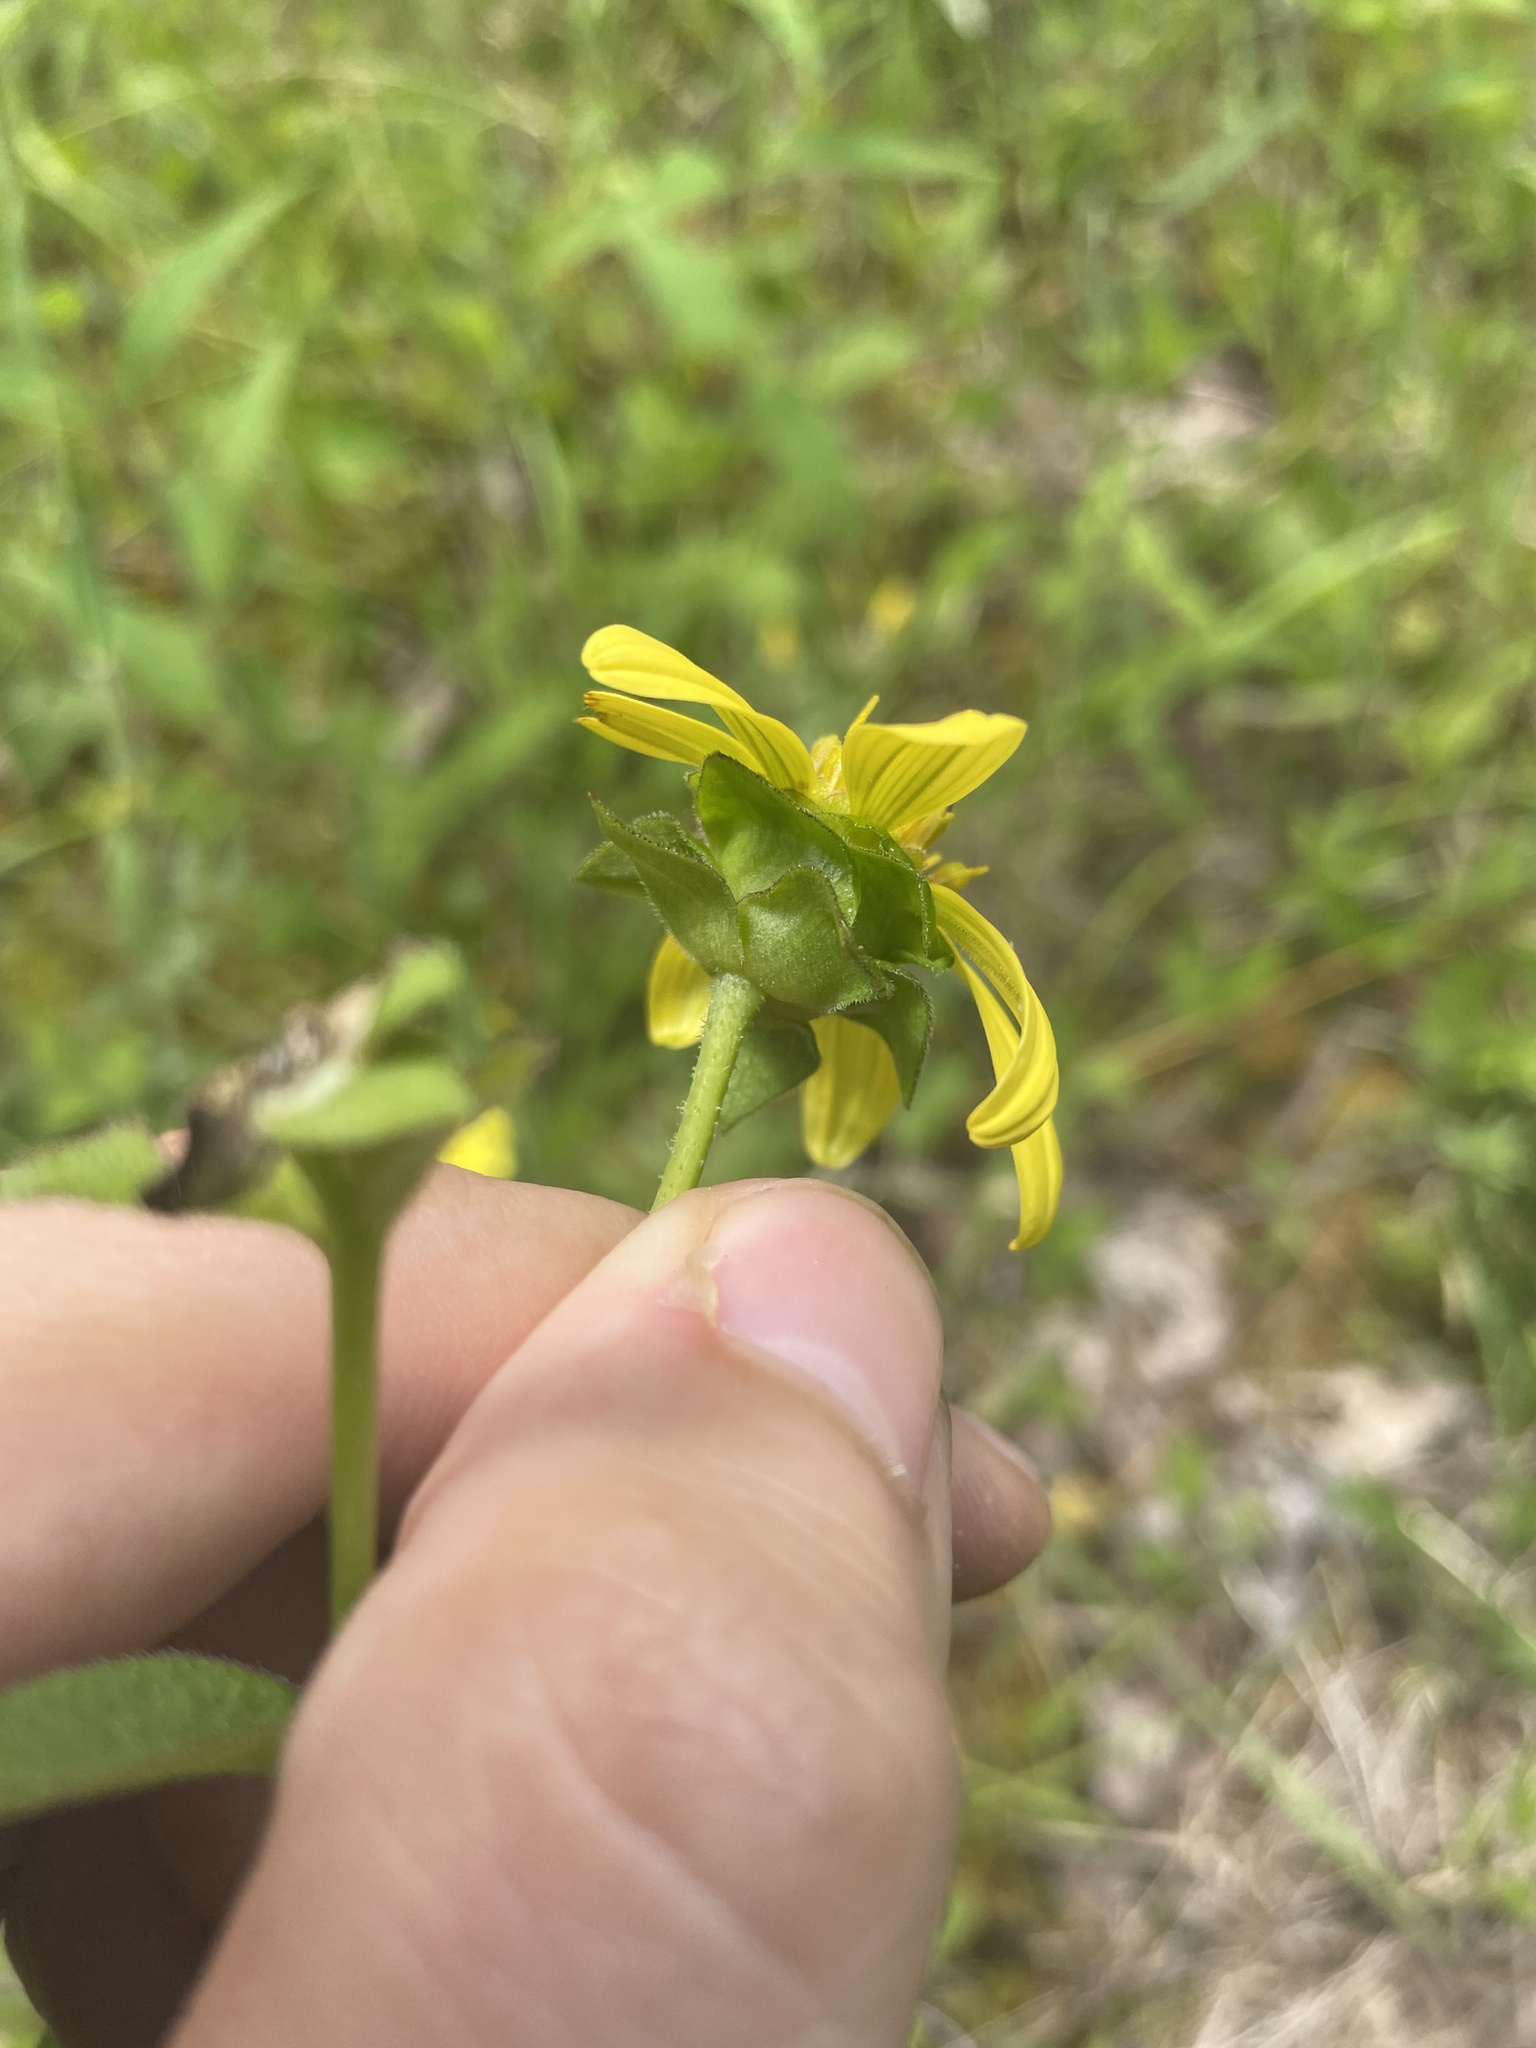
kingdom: Plantae
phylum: Tracheophyta
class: Magnoliopsida
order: Asterales
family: Asteraceae
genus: Silphium
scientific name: Silphium asteriscus
